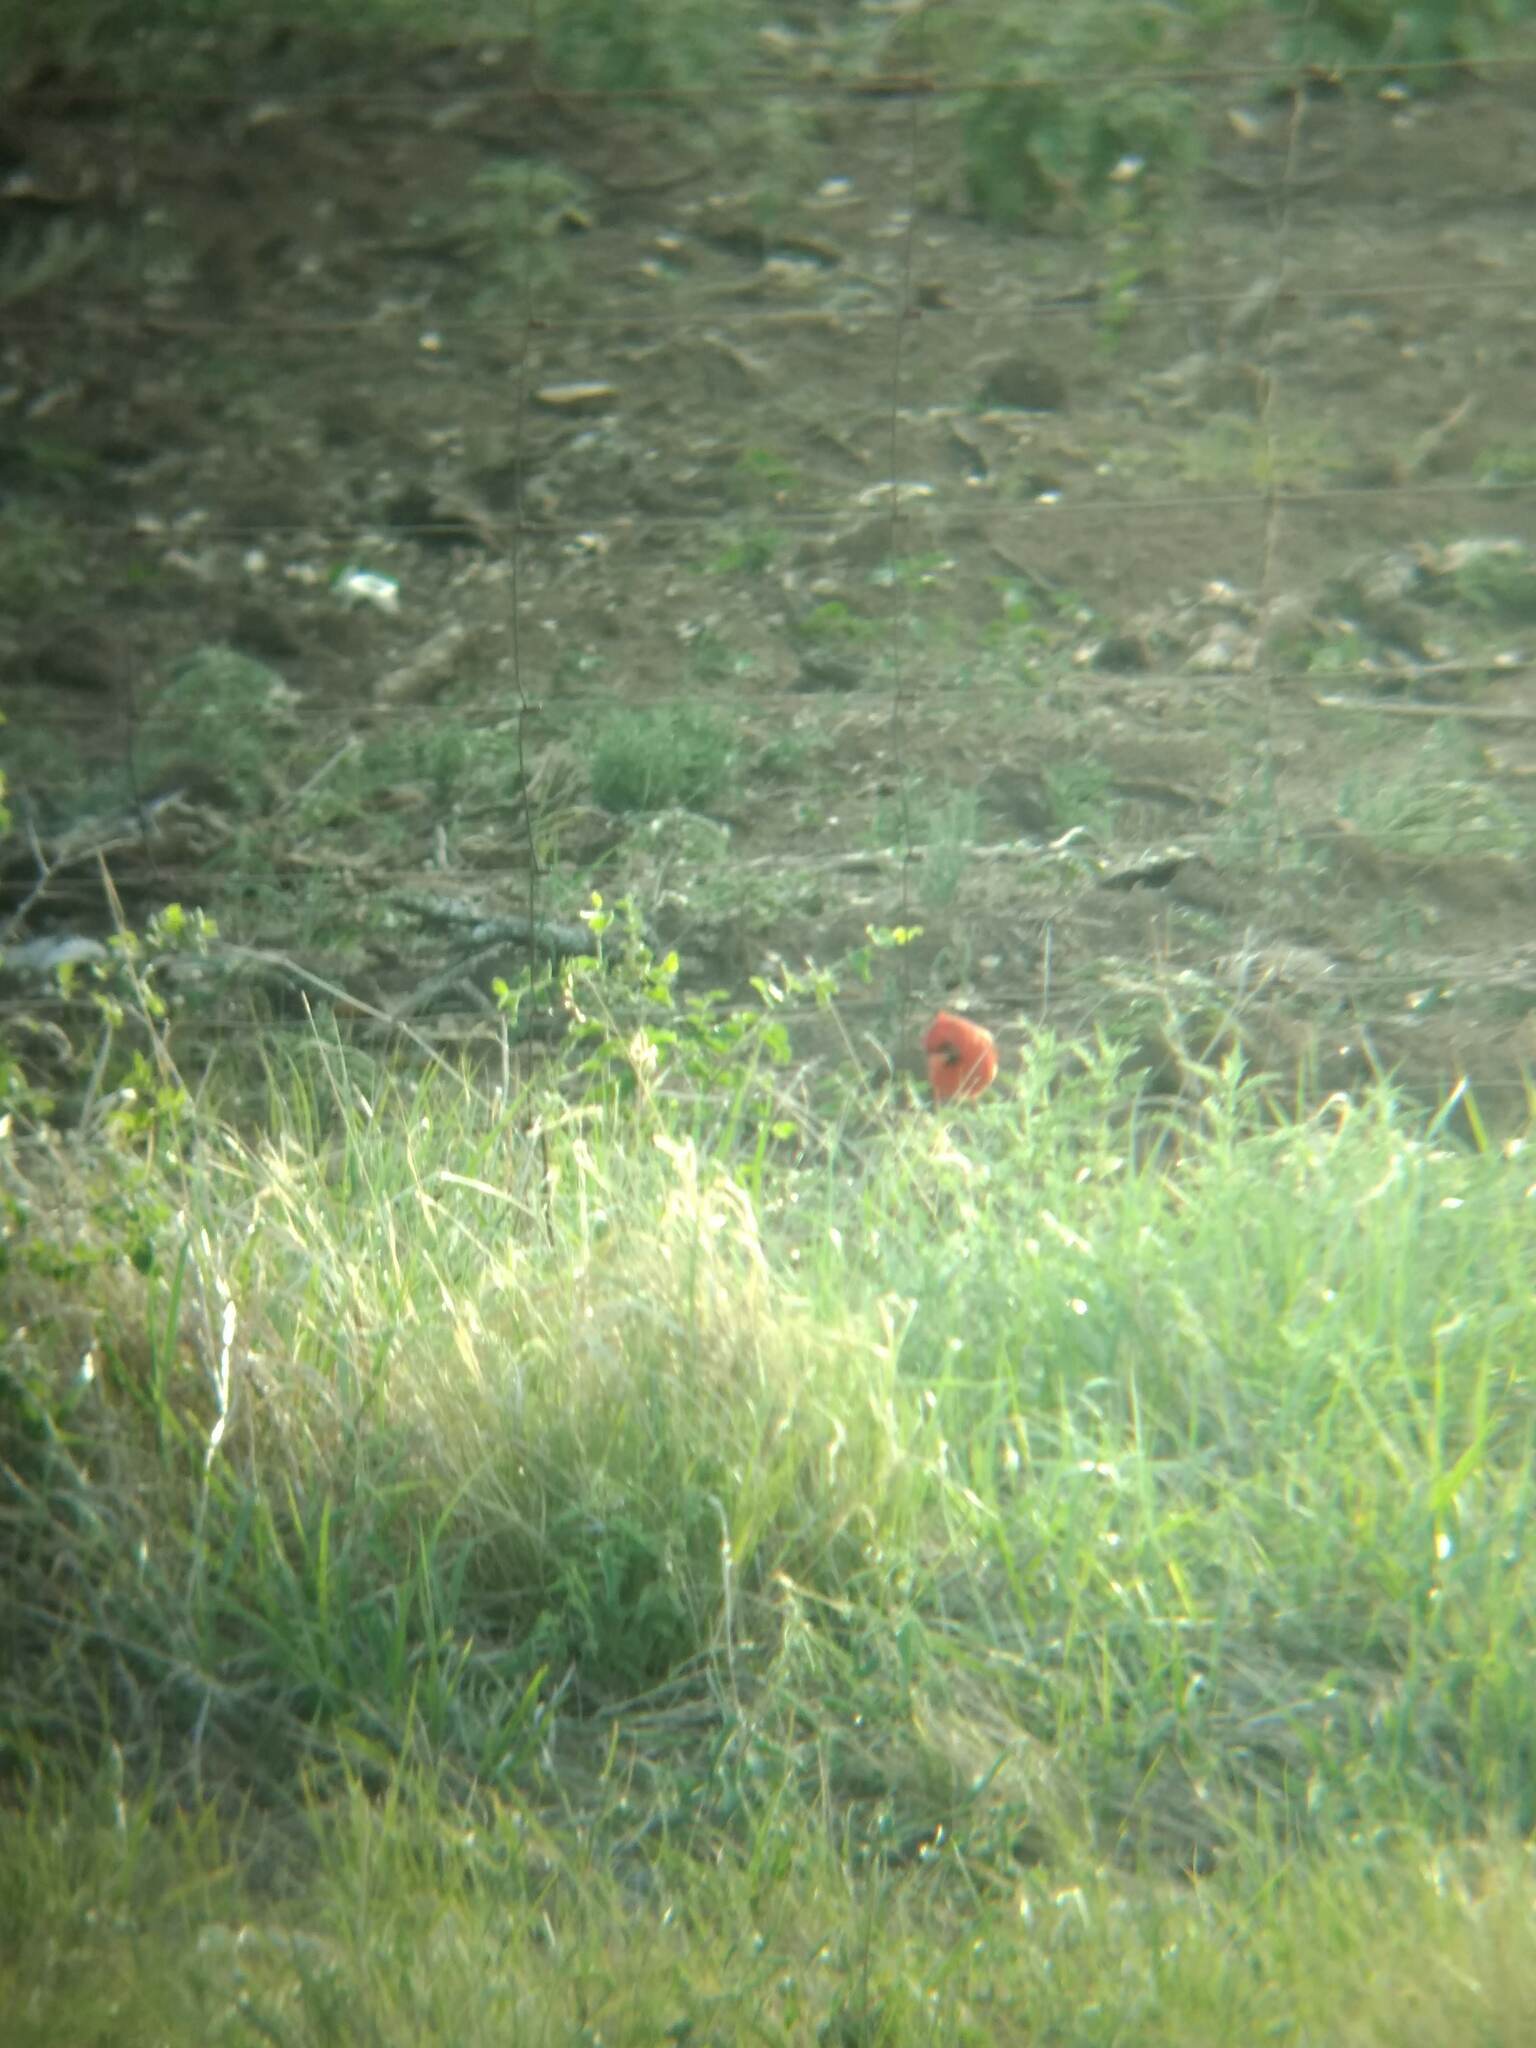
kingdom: Animalia
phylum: Chordata
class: Aves
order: Passeriformes
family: Cardinalidae
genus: Cardinalis
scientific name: Cardinalis cardinalis
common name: Northern cardinal
